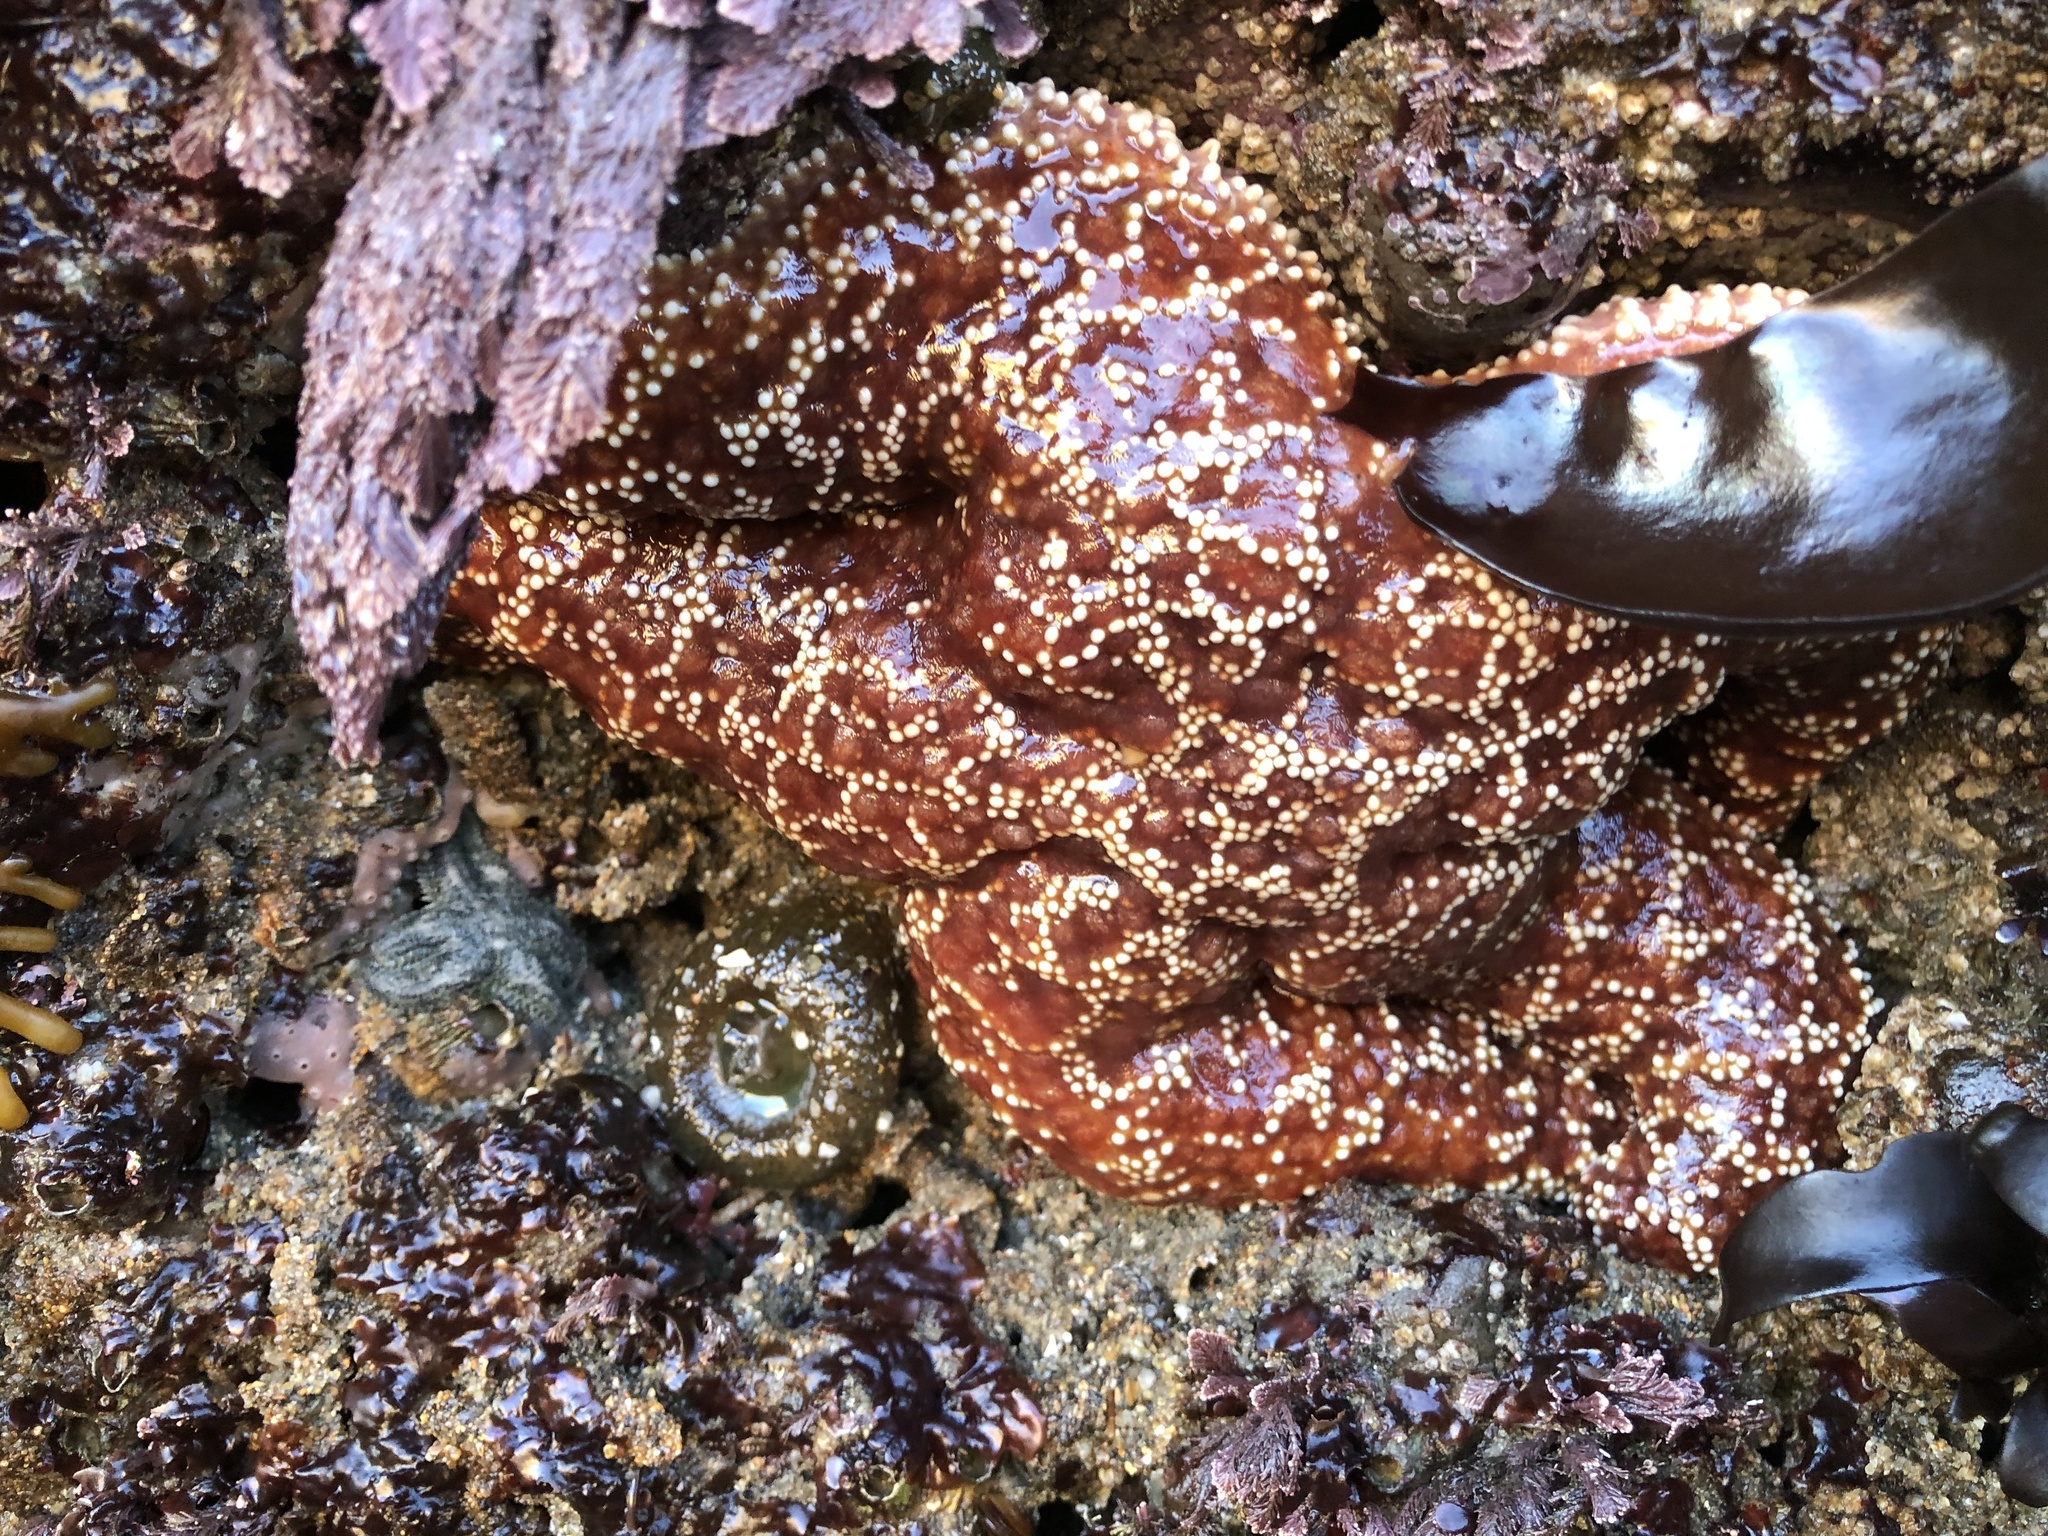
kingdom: Animalia
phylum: Echinodermata
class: Asteroidea
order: Forcipulatida
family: Asteriidae
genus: Pisaster
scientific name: Pisaster ochraceus
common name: Ochre stars
